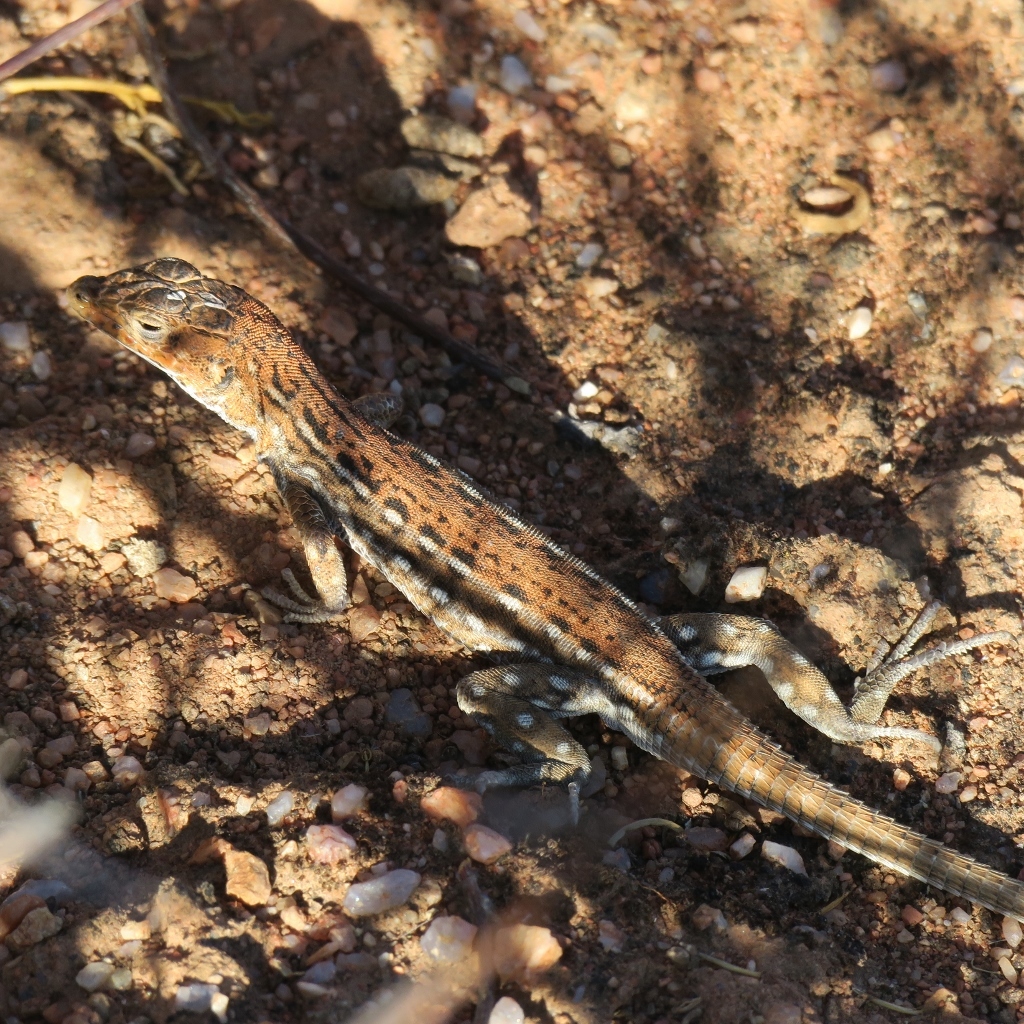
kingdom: Animalia
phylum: Chordata
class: Squamata
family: Lacertidae
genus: Pedioplanis
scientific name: Pedioplanis lineoocellata
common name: Spotted sand lizard
